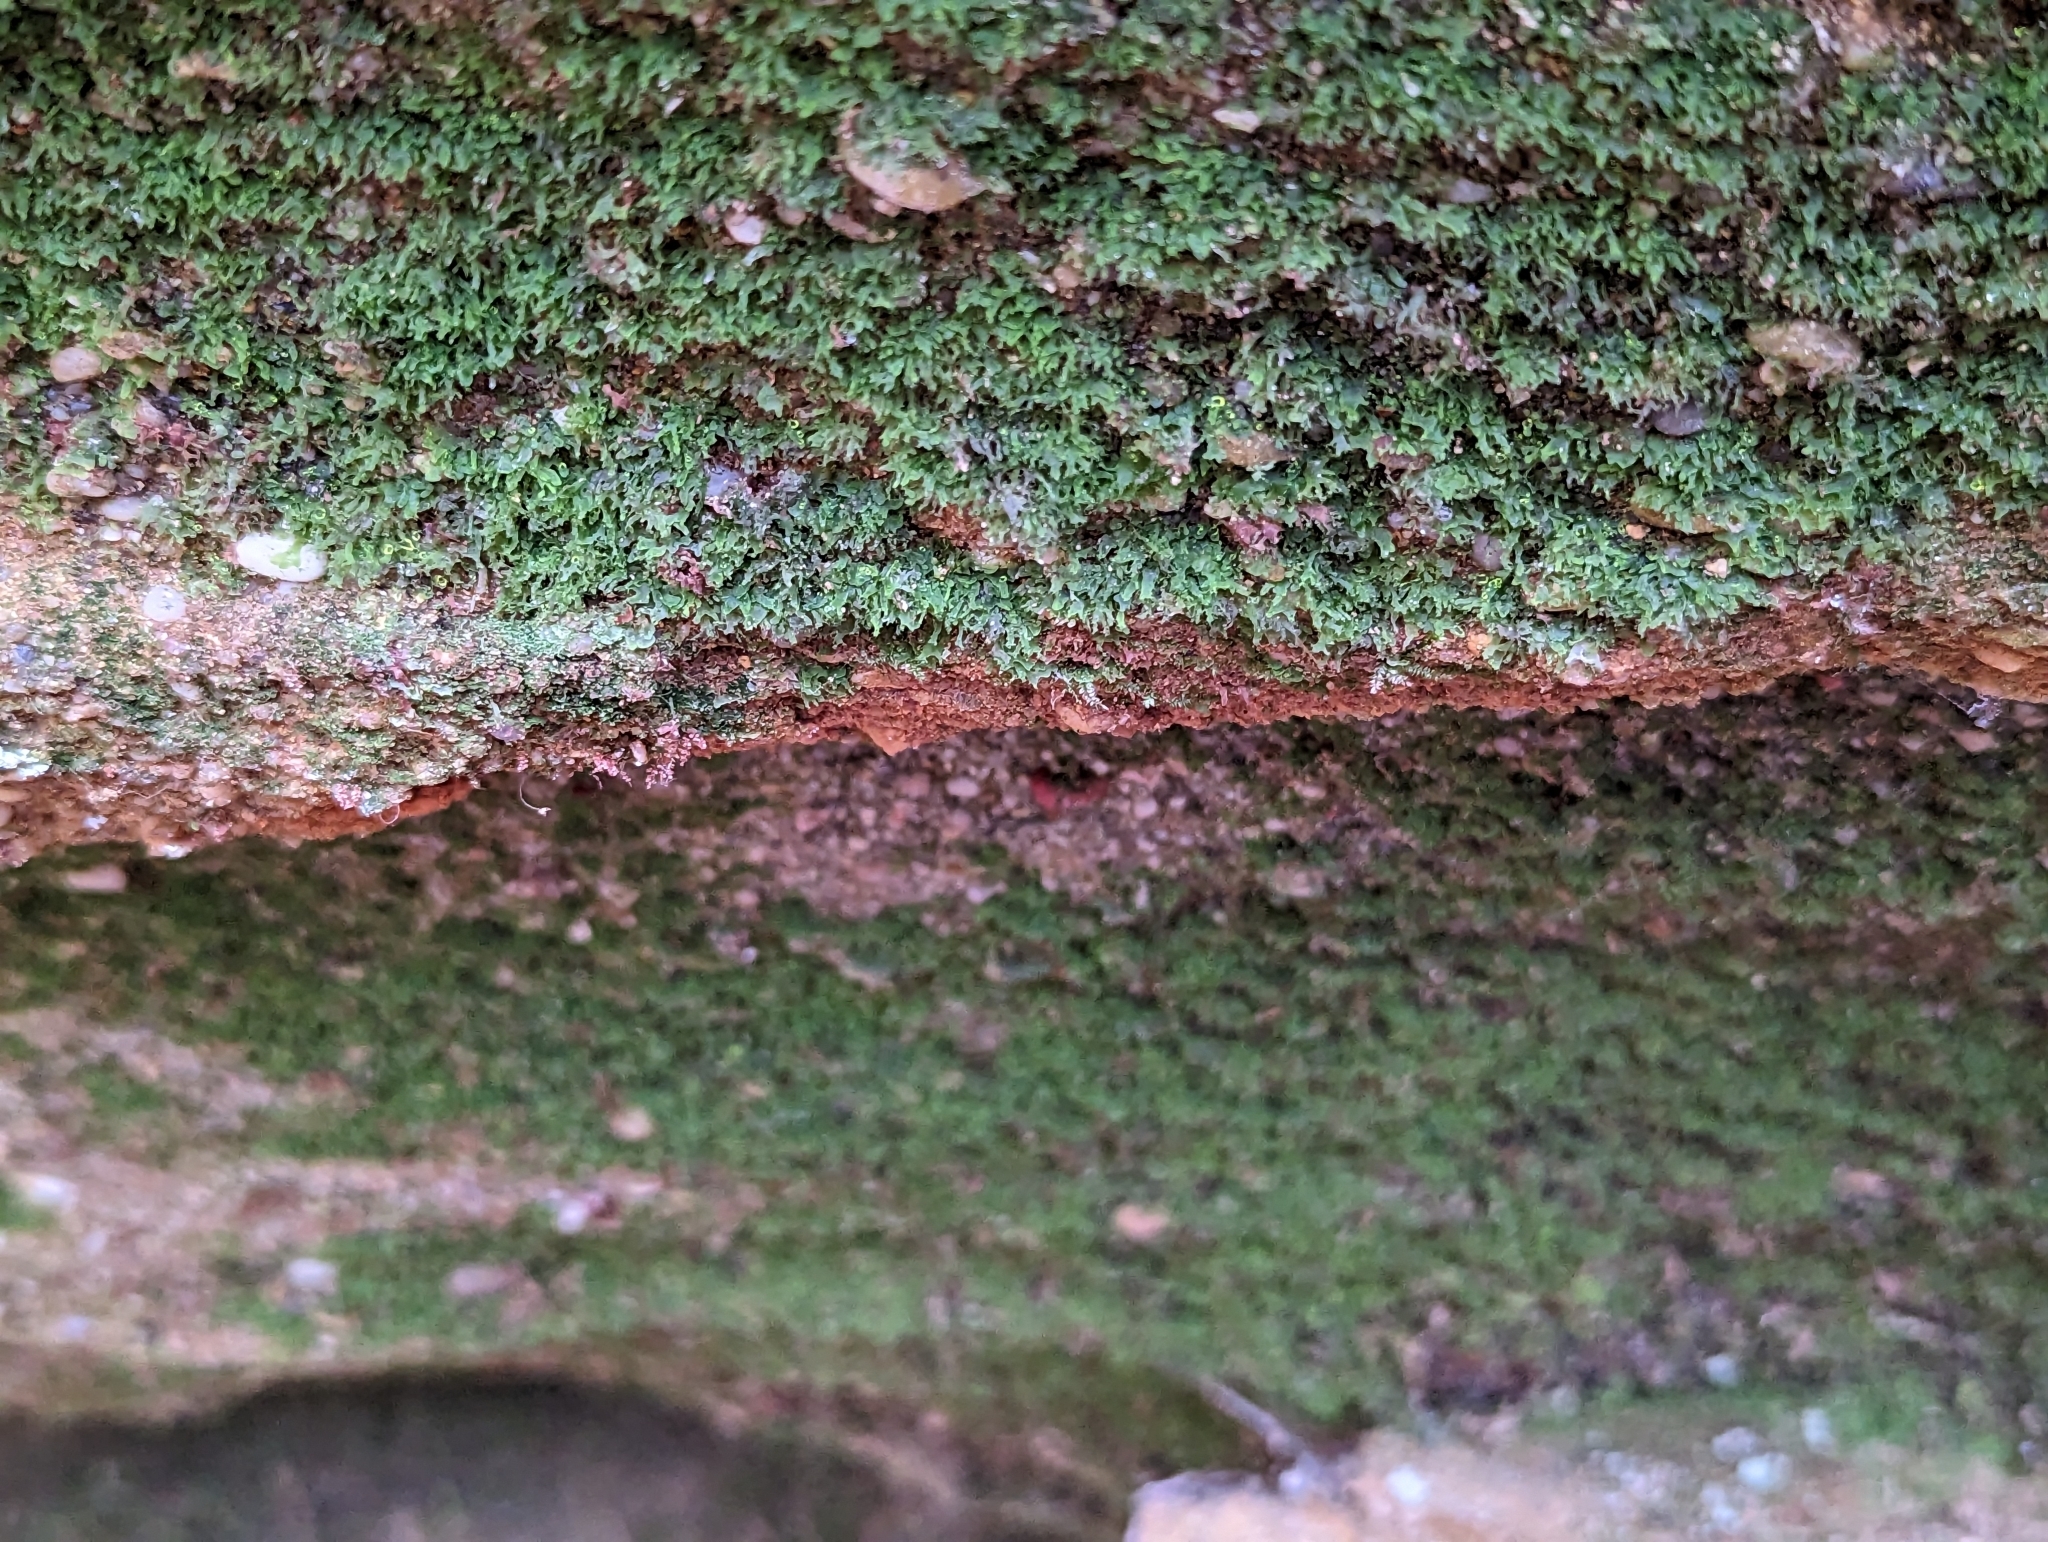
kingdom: Plantae
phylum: Tracheophyta
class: Polypodiopsida
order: Polypodiales
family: Pteridaceae
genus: Vittaria
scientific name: Vittaria appalachiana
